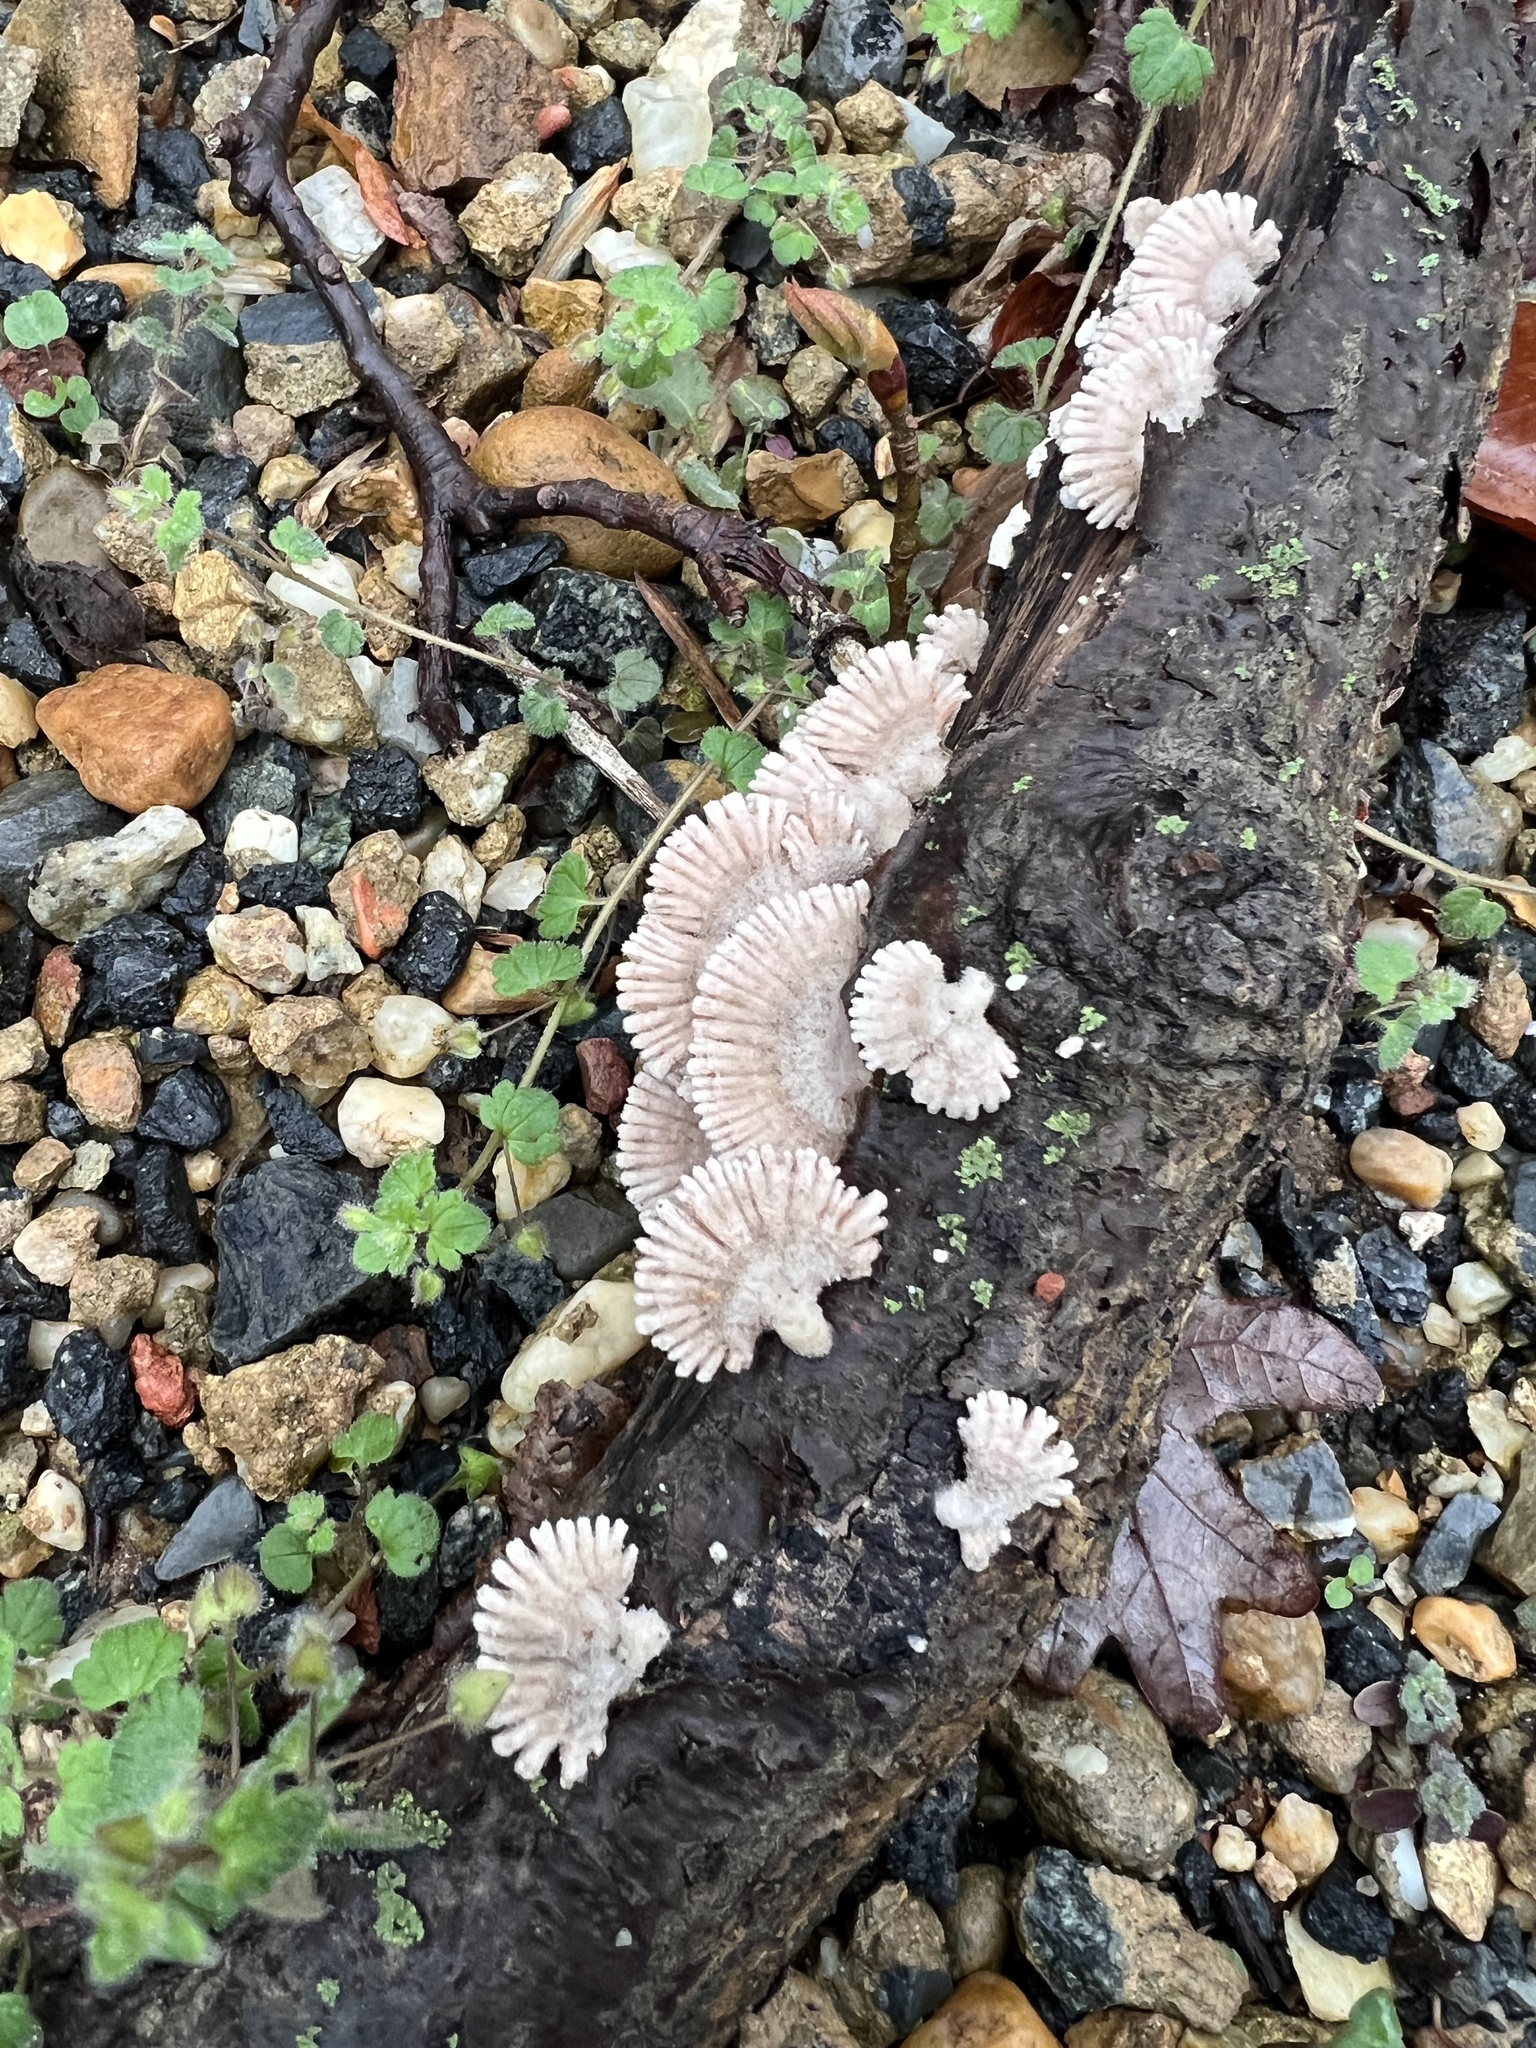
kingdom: Fungi
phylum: Basidiomycota
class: Agaricomycetes
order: Agaricales
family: Schizophyllaceae
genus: Schizophyllum
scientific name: Schizophyllum commune
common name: Common porecrust
